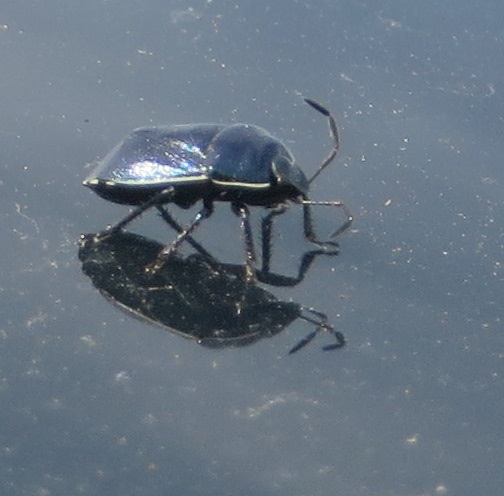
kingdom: Animalia
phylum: Arthropoda
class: Insecta
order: Hemiptera
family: Cydnidae
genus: Canthophorus
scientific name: Canthophorus melanopterus
